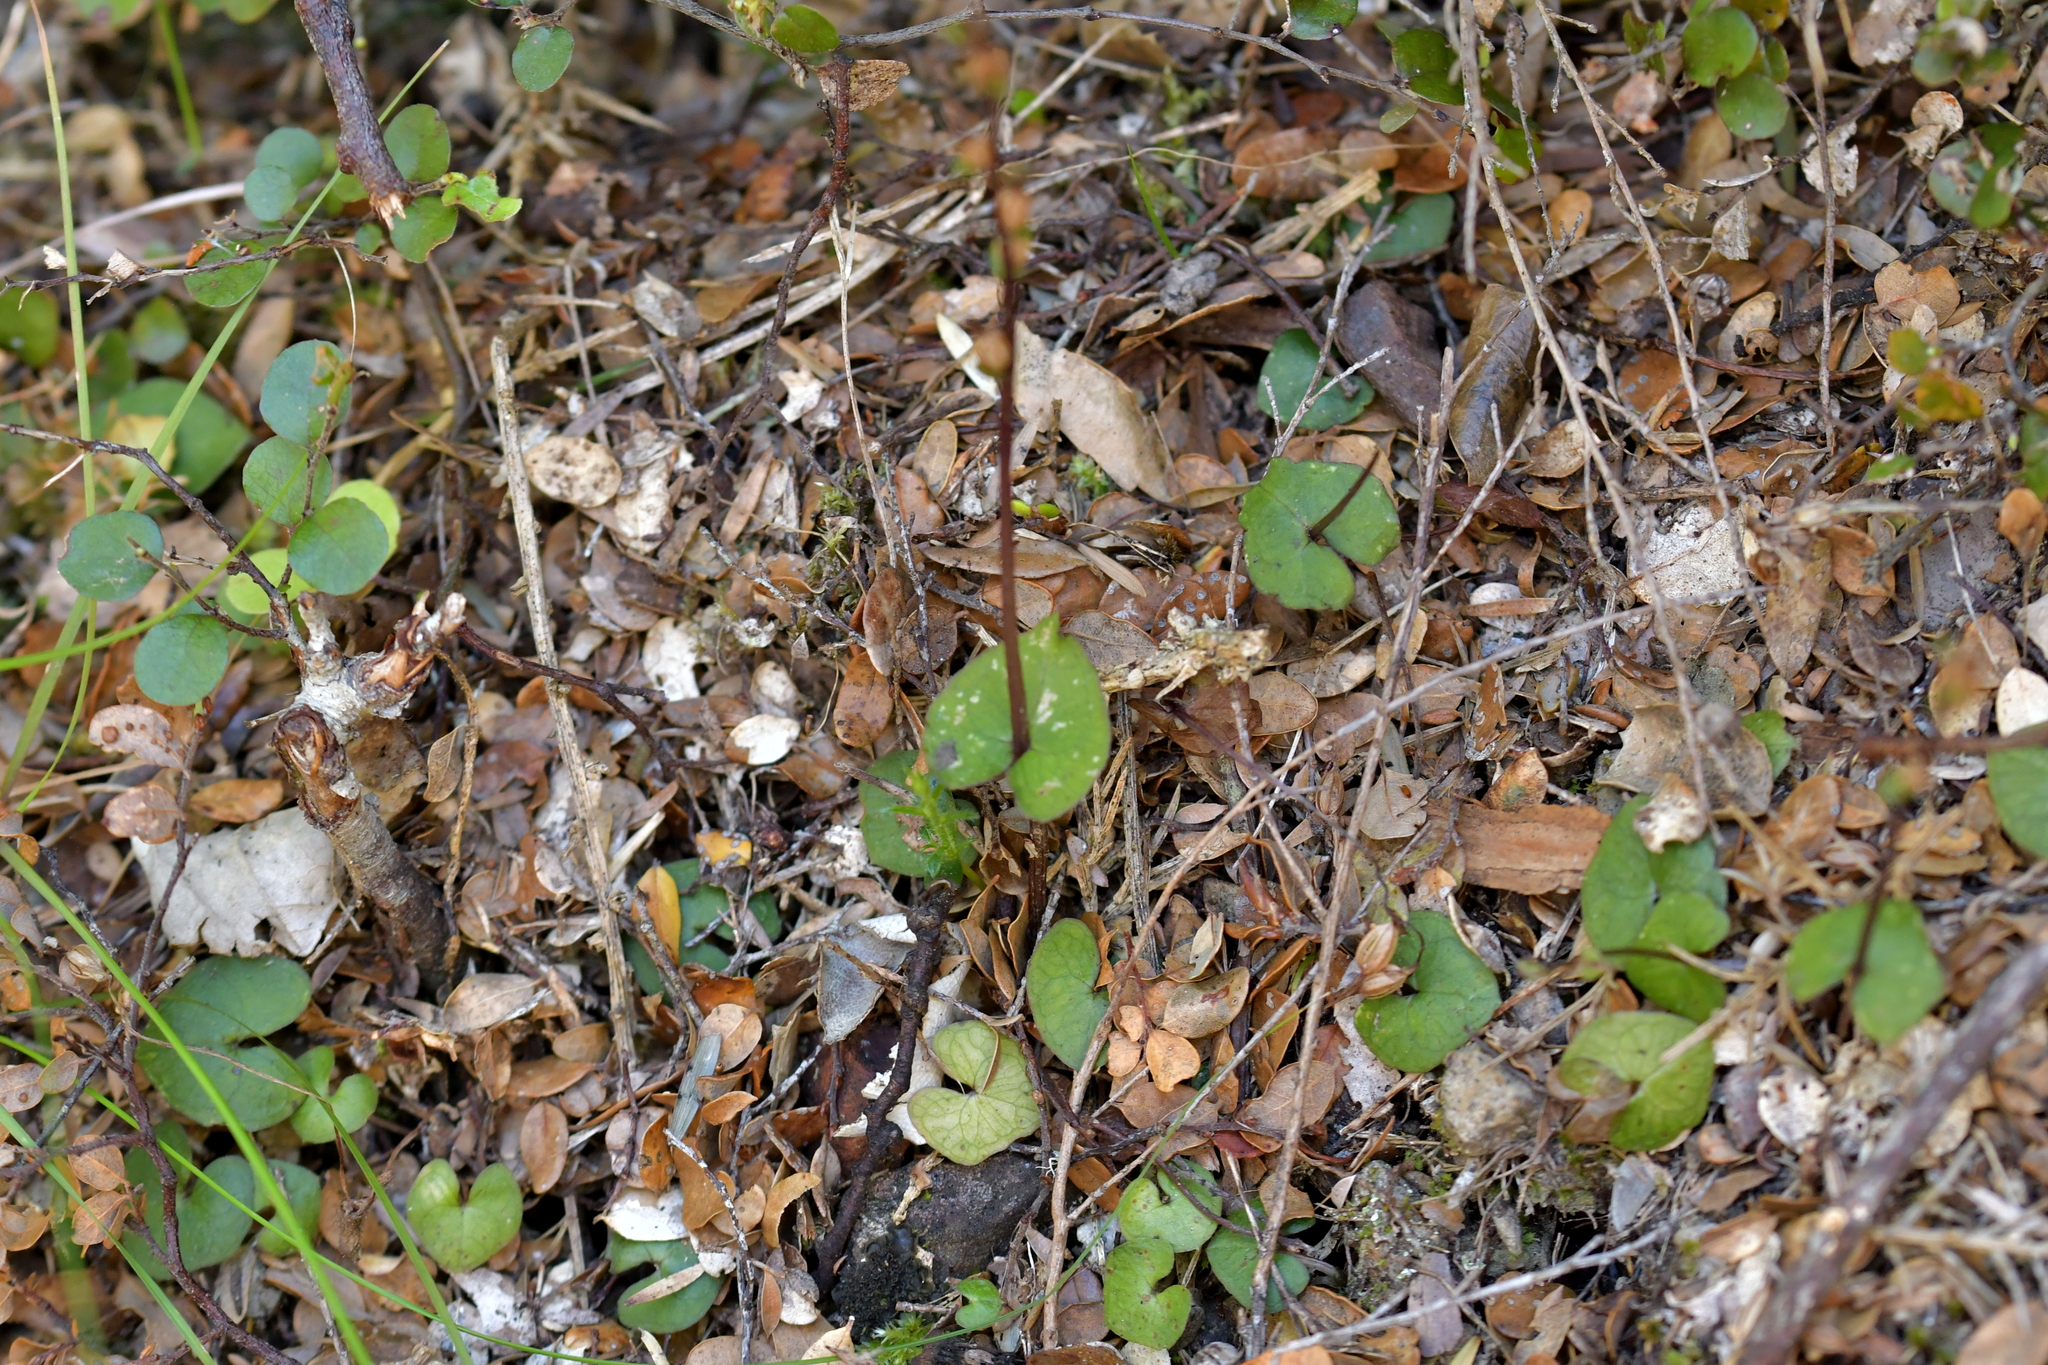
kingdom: Plantae
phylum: Tracheophyta
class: Liliopsida
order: Asparagales
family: Orchidaceae
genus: Acianthus
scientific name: Acianthus sinclairii
